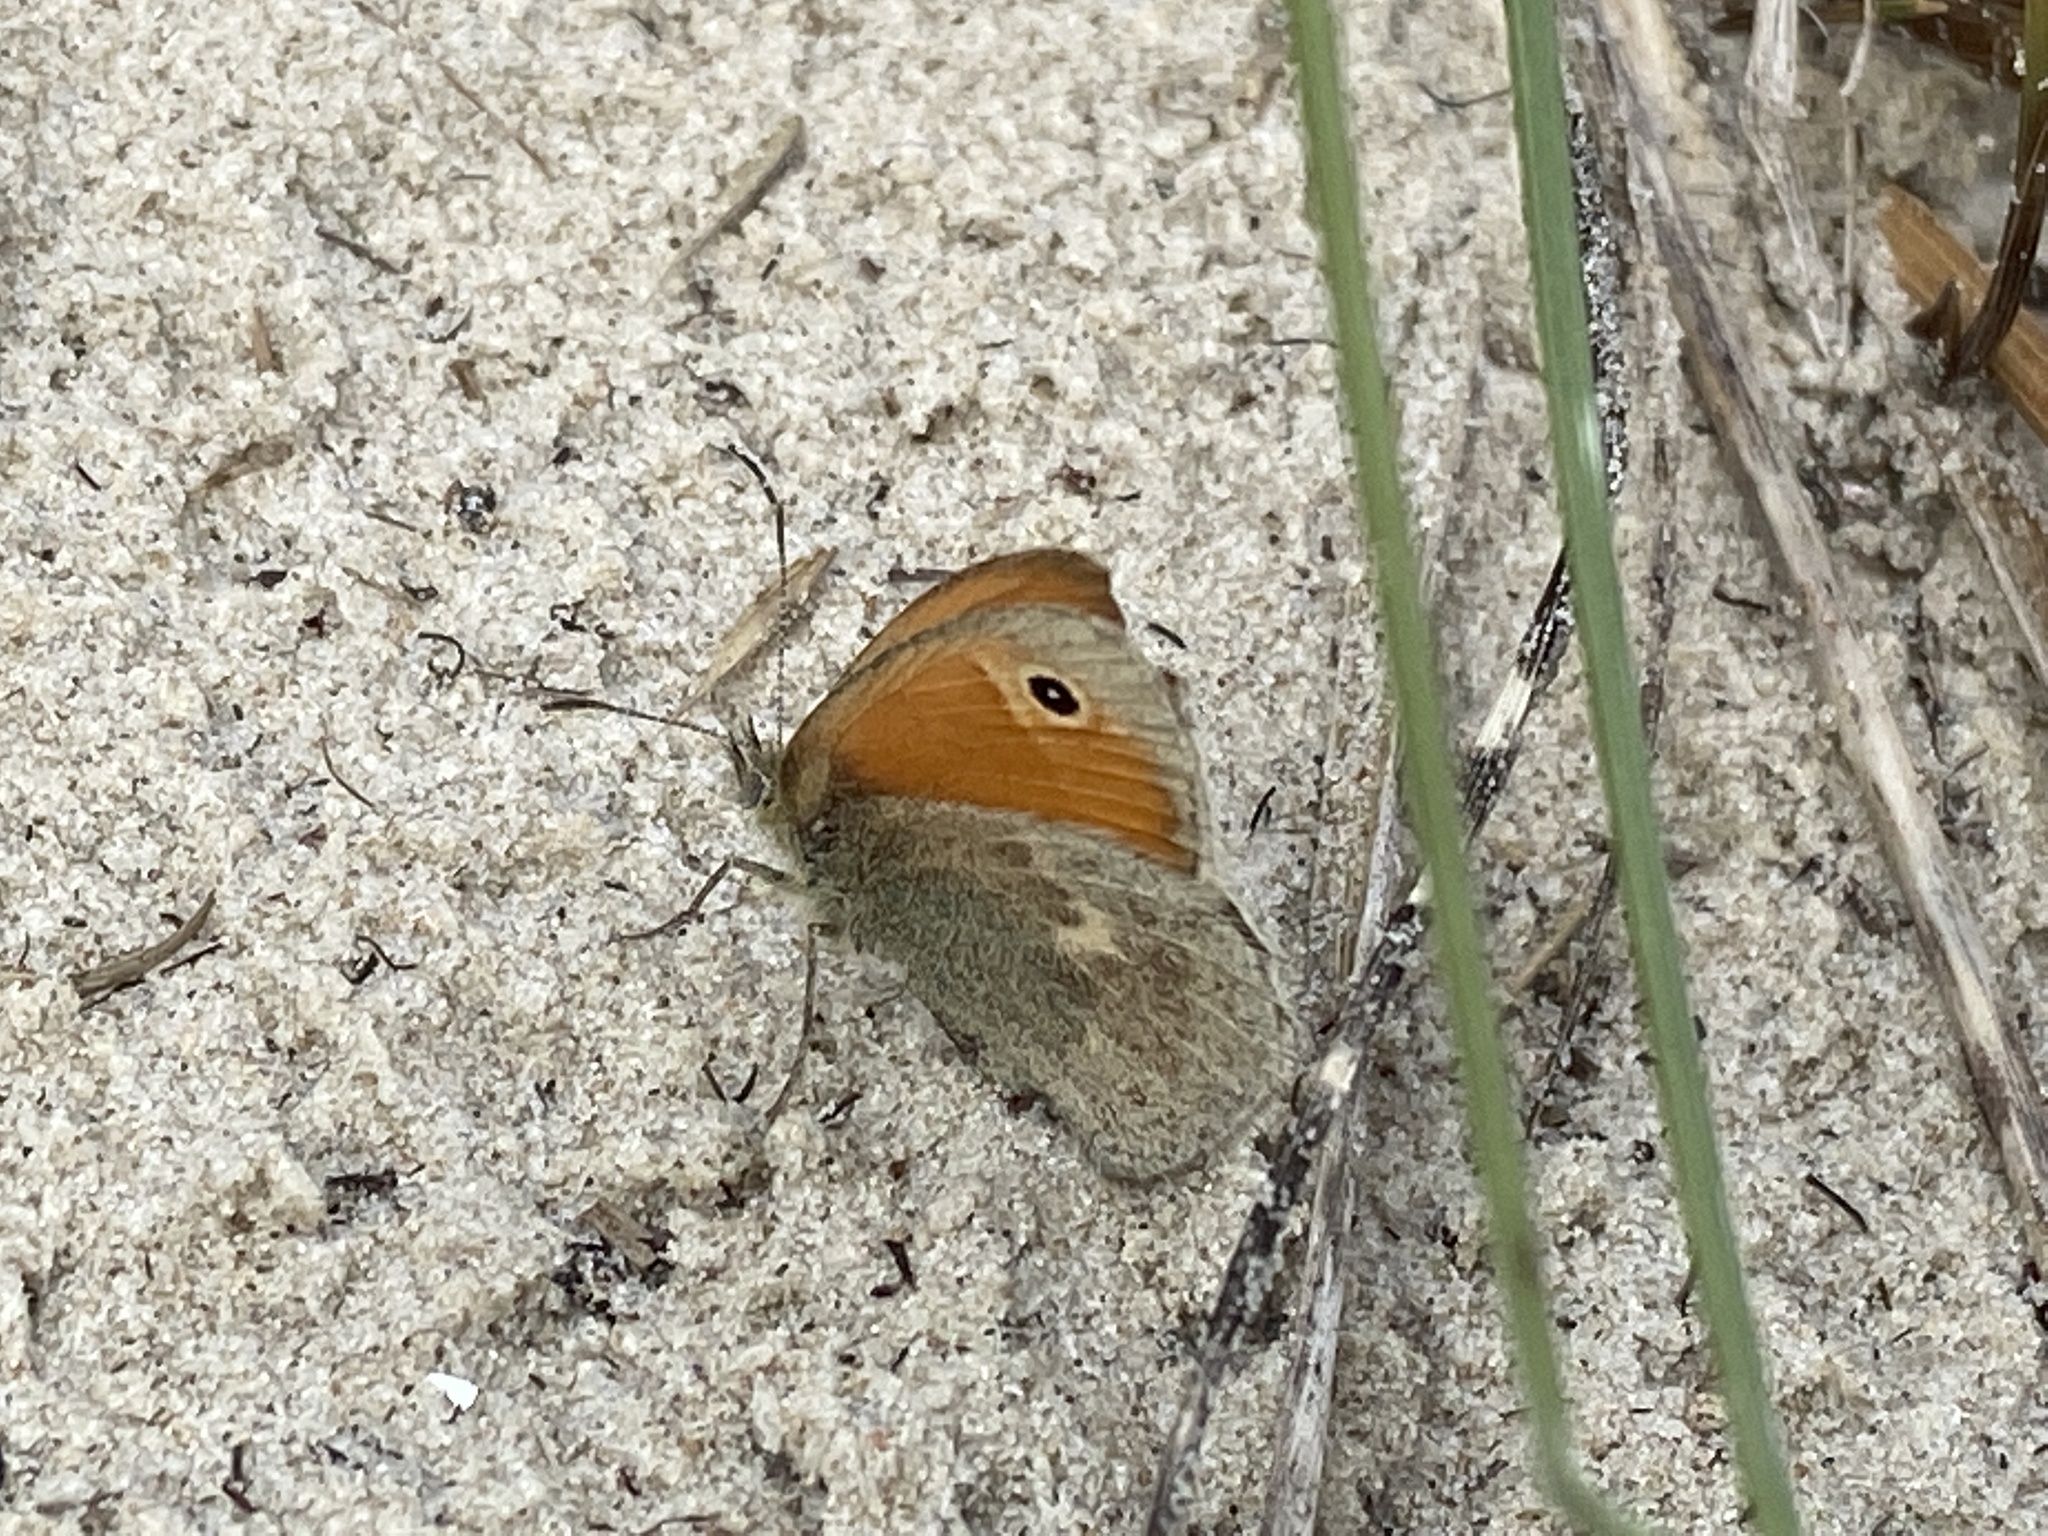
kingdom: Animalia
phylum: Arthropoda
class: Insecta
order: Lepidoptera
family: Nymphalidae
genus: Coenonympha
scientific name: Coenonympha pamphilus
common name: Small heath
